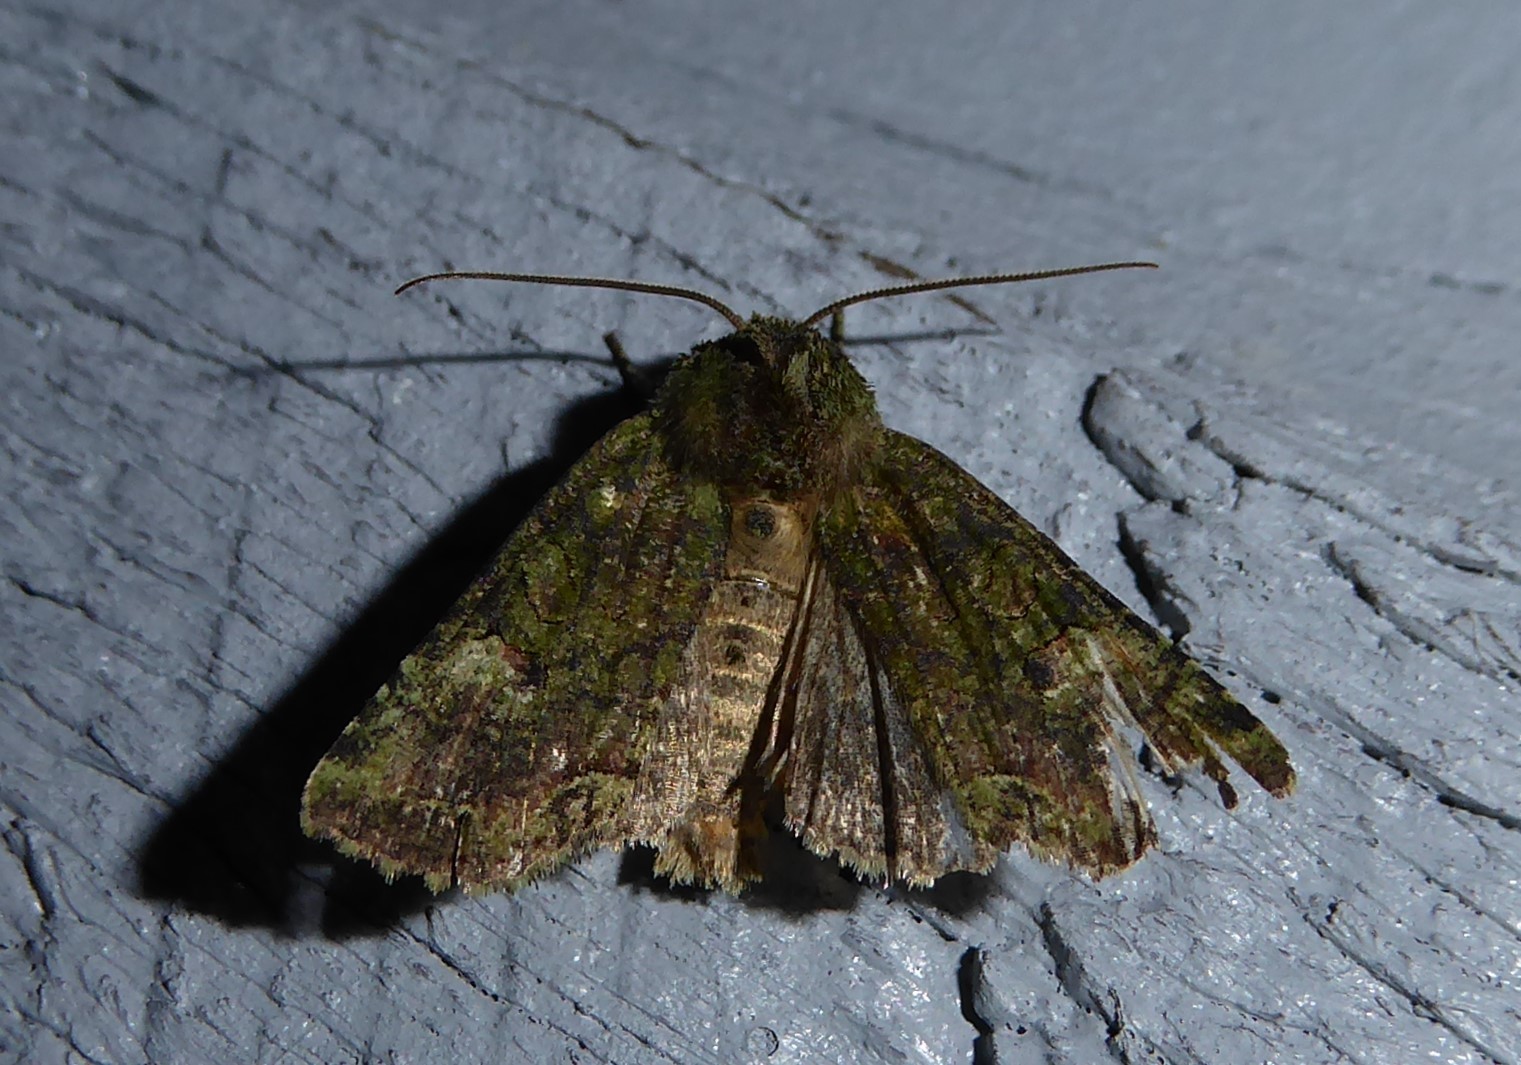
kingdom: Animalia
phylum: Arthropoda
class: Insecta
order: Lepidoptera
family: Noctuidae
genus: Meterana
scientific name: Meterana levis
